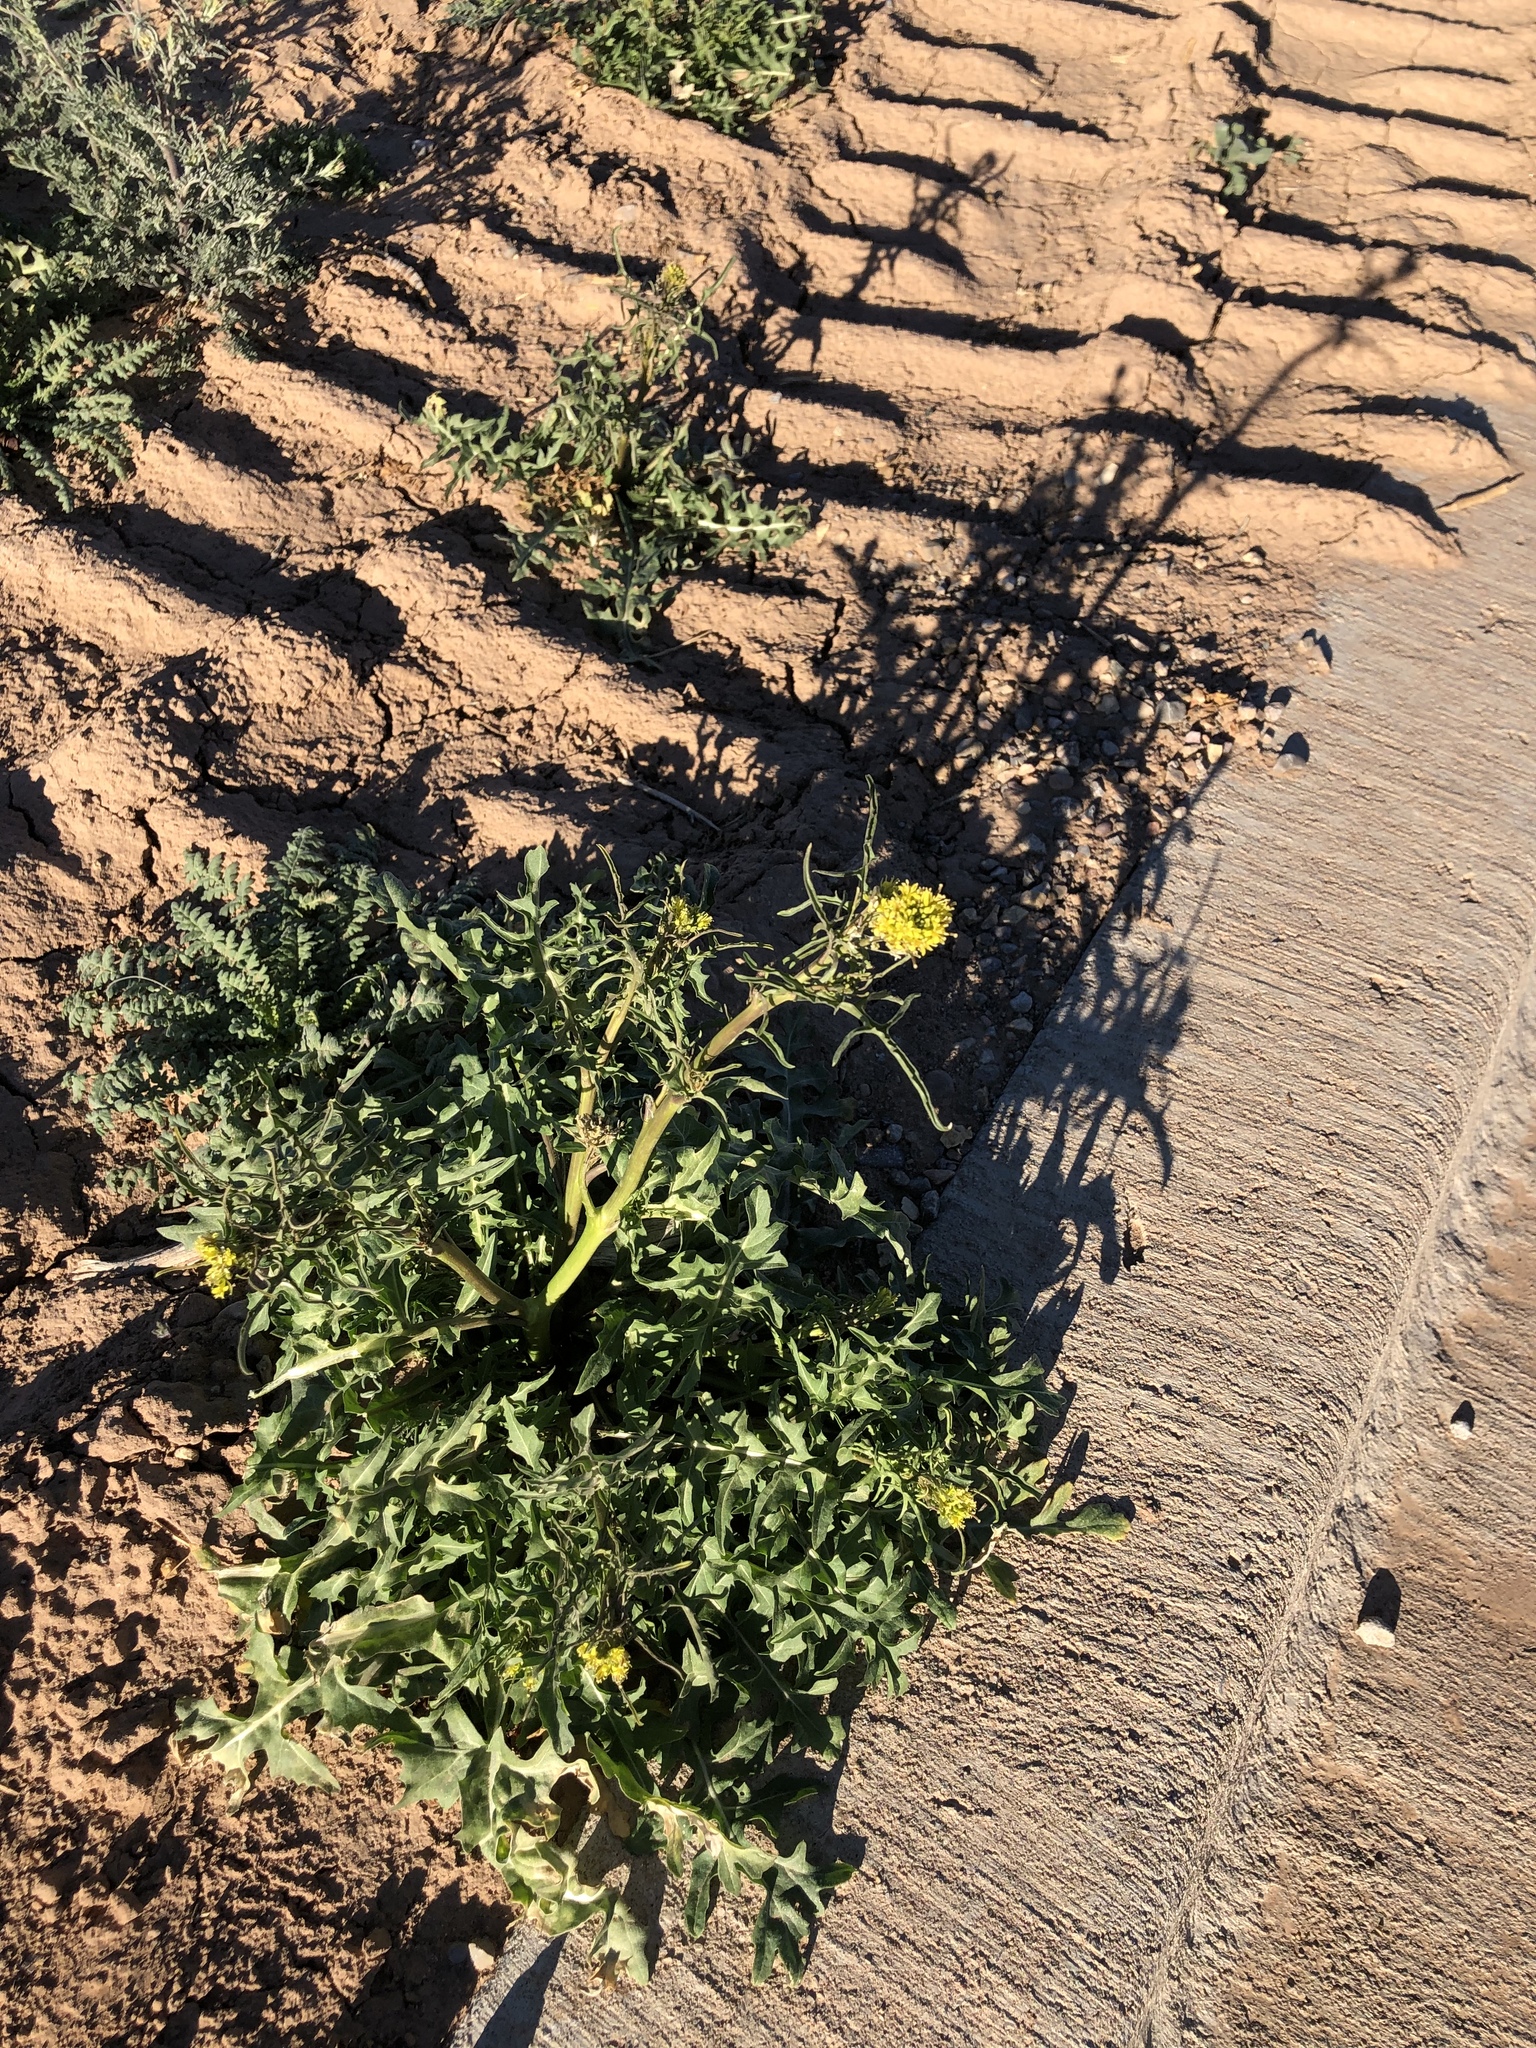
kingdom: Plantae
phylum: Tracheophyta
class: Magnoliopsida
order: Brassicales
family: Brassicaceae
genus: Sisymbrium
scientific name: Sisymbrium irio
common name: London rocket
